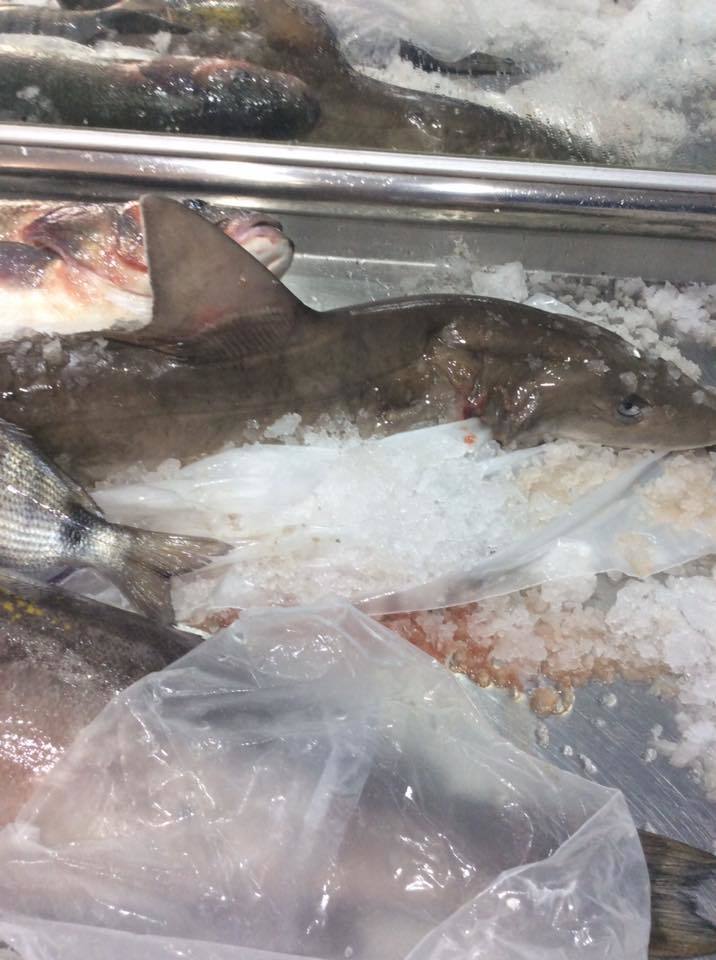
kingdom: Animalia
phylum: Chordata
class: Elasmobranchii
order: Carcharhiniformes
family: Triakidae
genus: Mustelus
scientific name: Mustelus mustelus
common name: Smooth-hound
